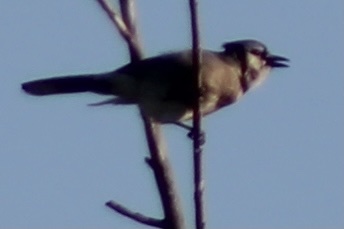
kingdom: Animalia
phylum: Chordata
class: Aves
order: Passeriformes
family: Corvidae
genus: Cyanocitta
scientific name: Cyanocitta cristata
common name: Blue jay
